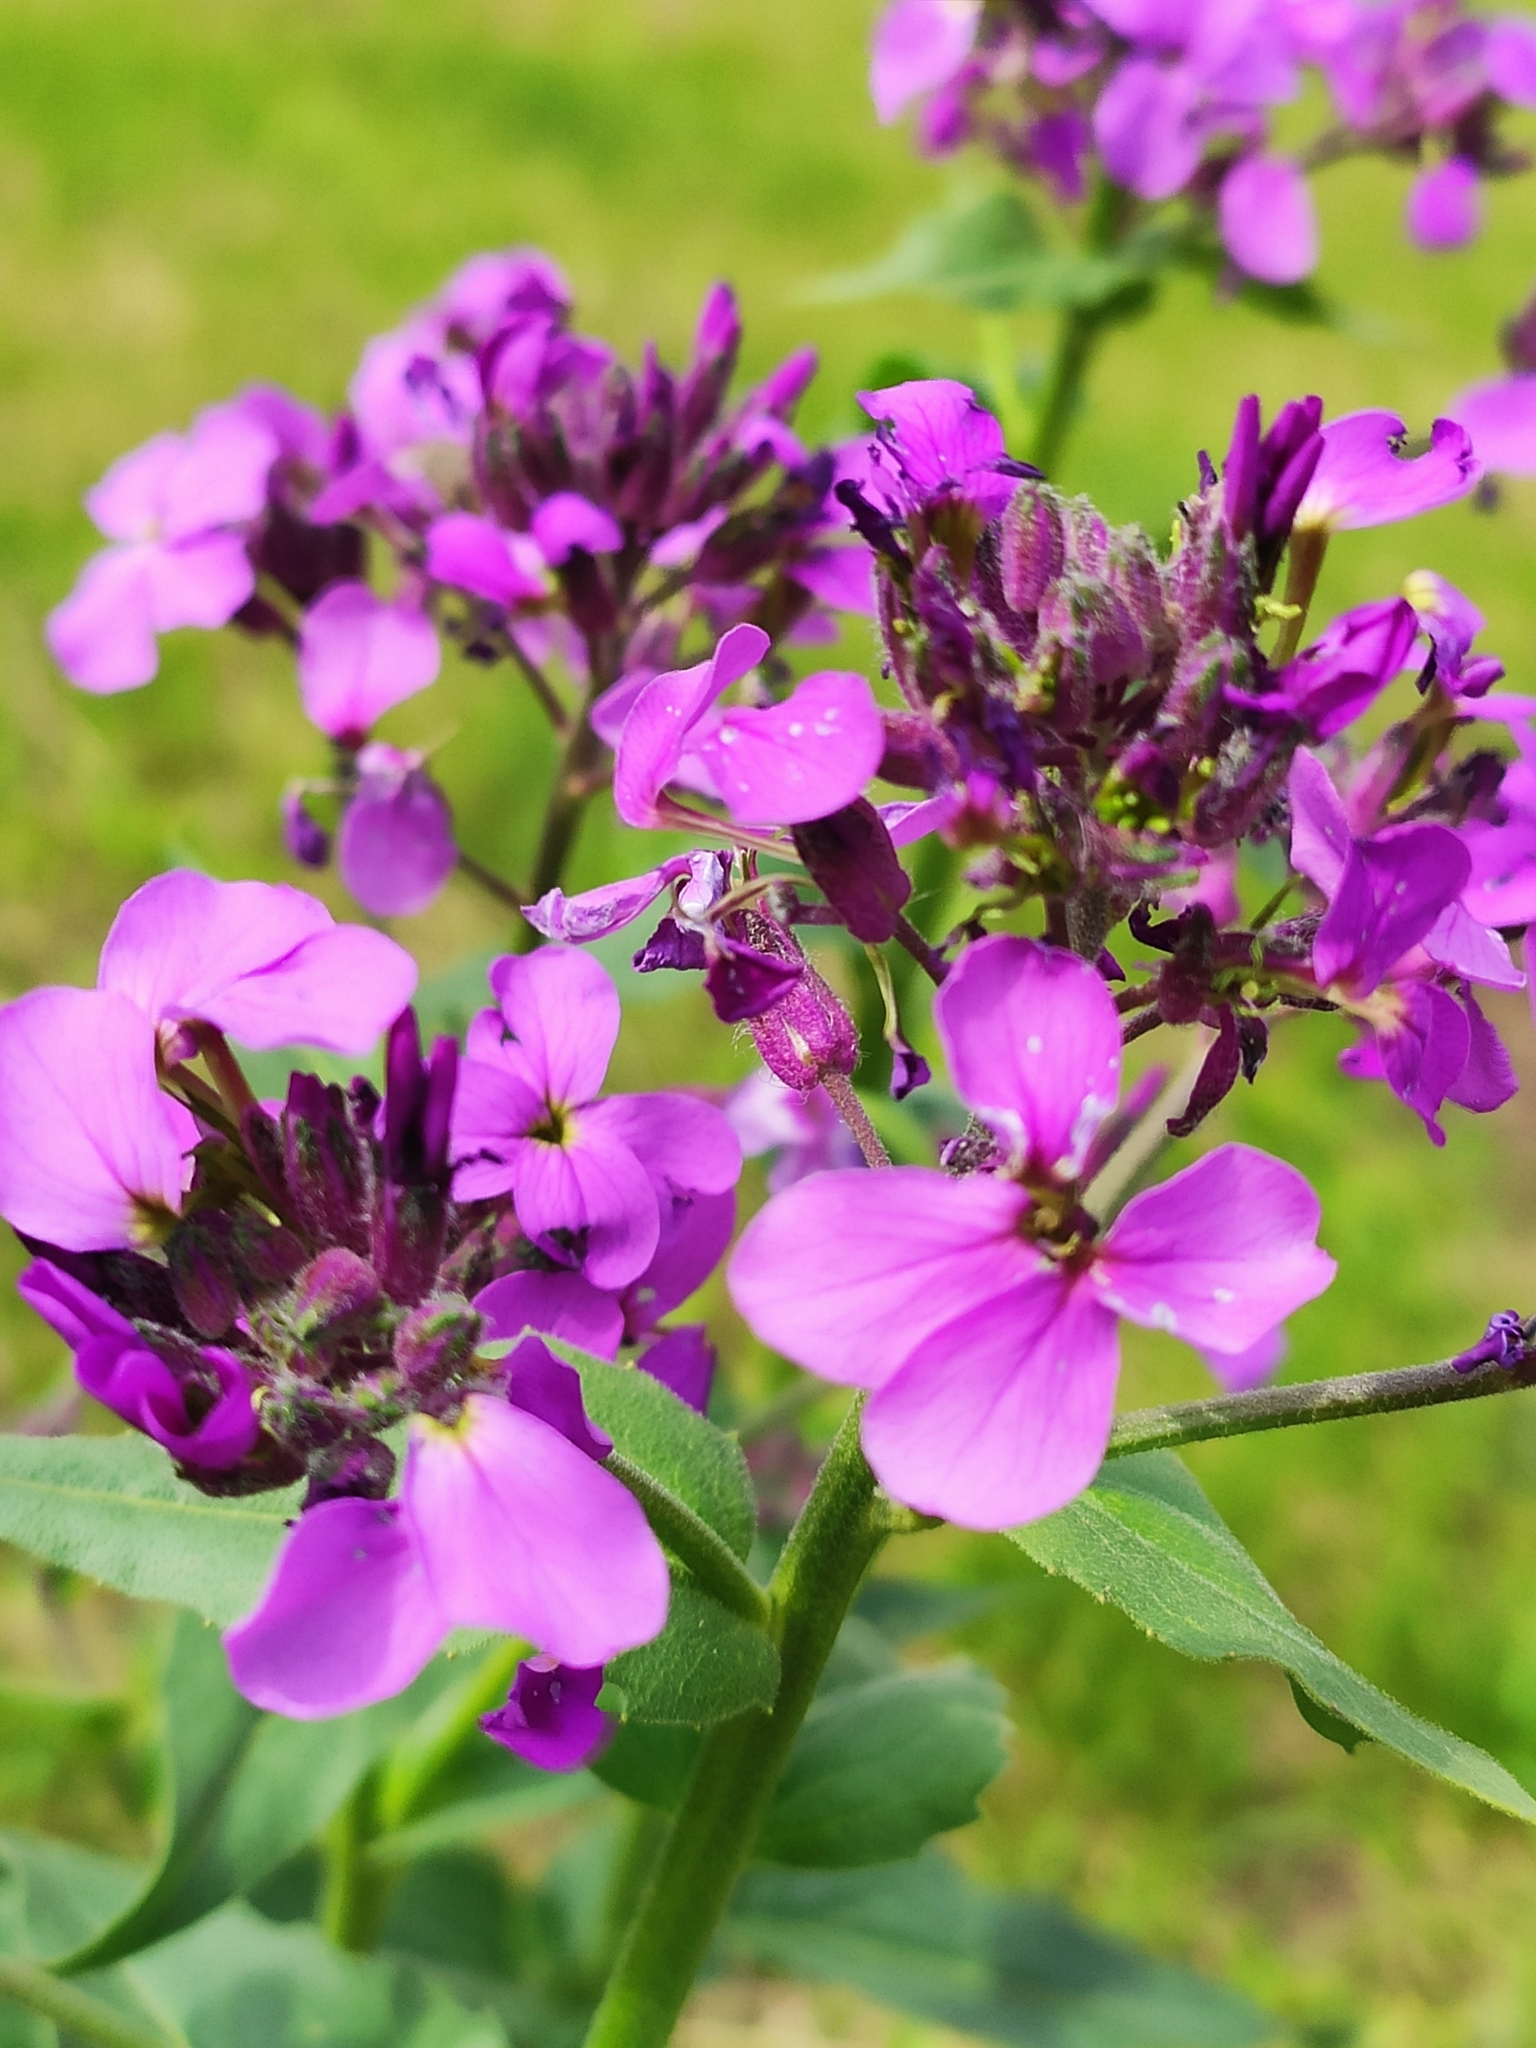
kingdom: Plantae
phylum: Tracheophyta
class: Magnoliopsida
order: Brassicales
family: Brassicaceae
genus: Hesperis
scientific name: Hesperis matronalis
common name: Dame's-violet
